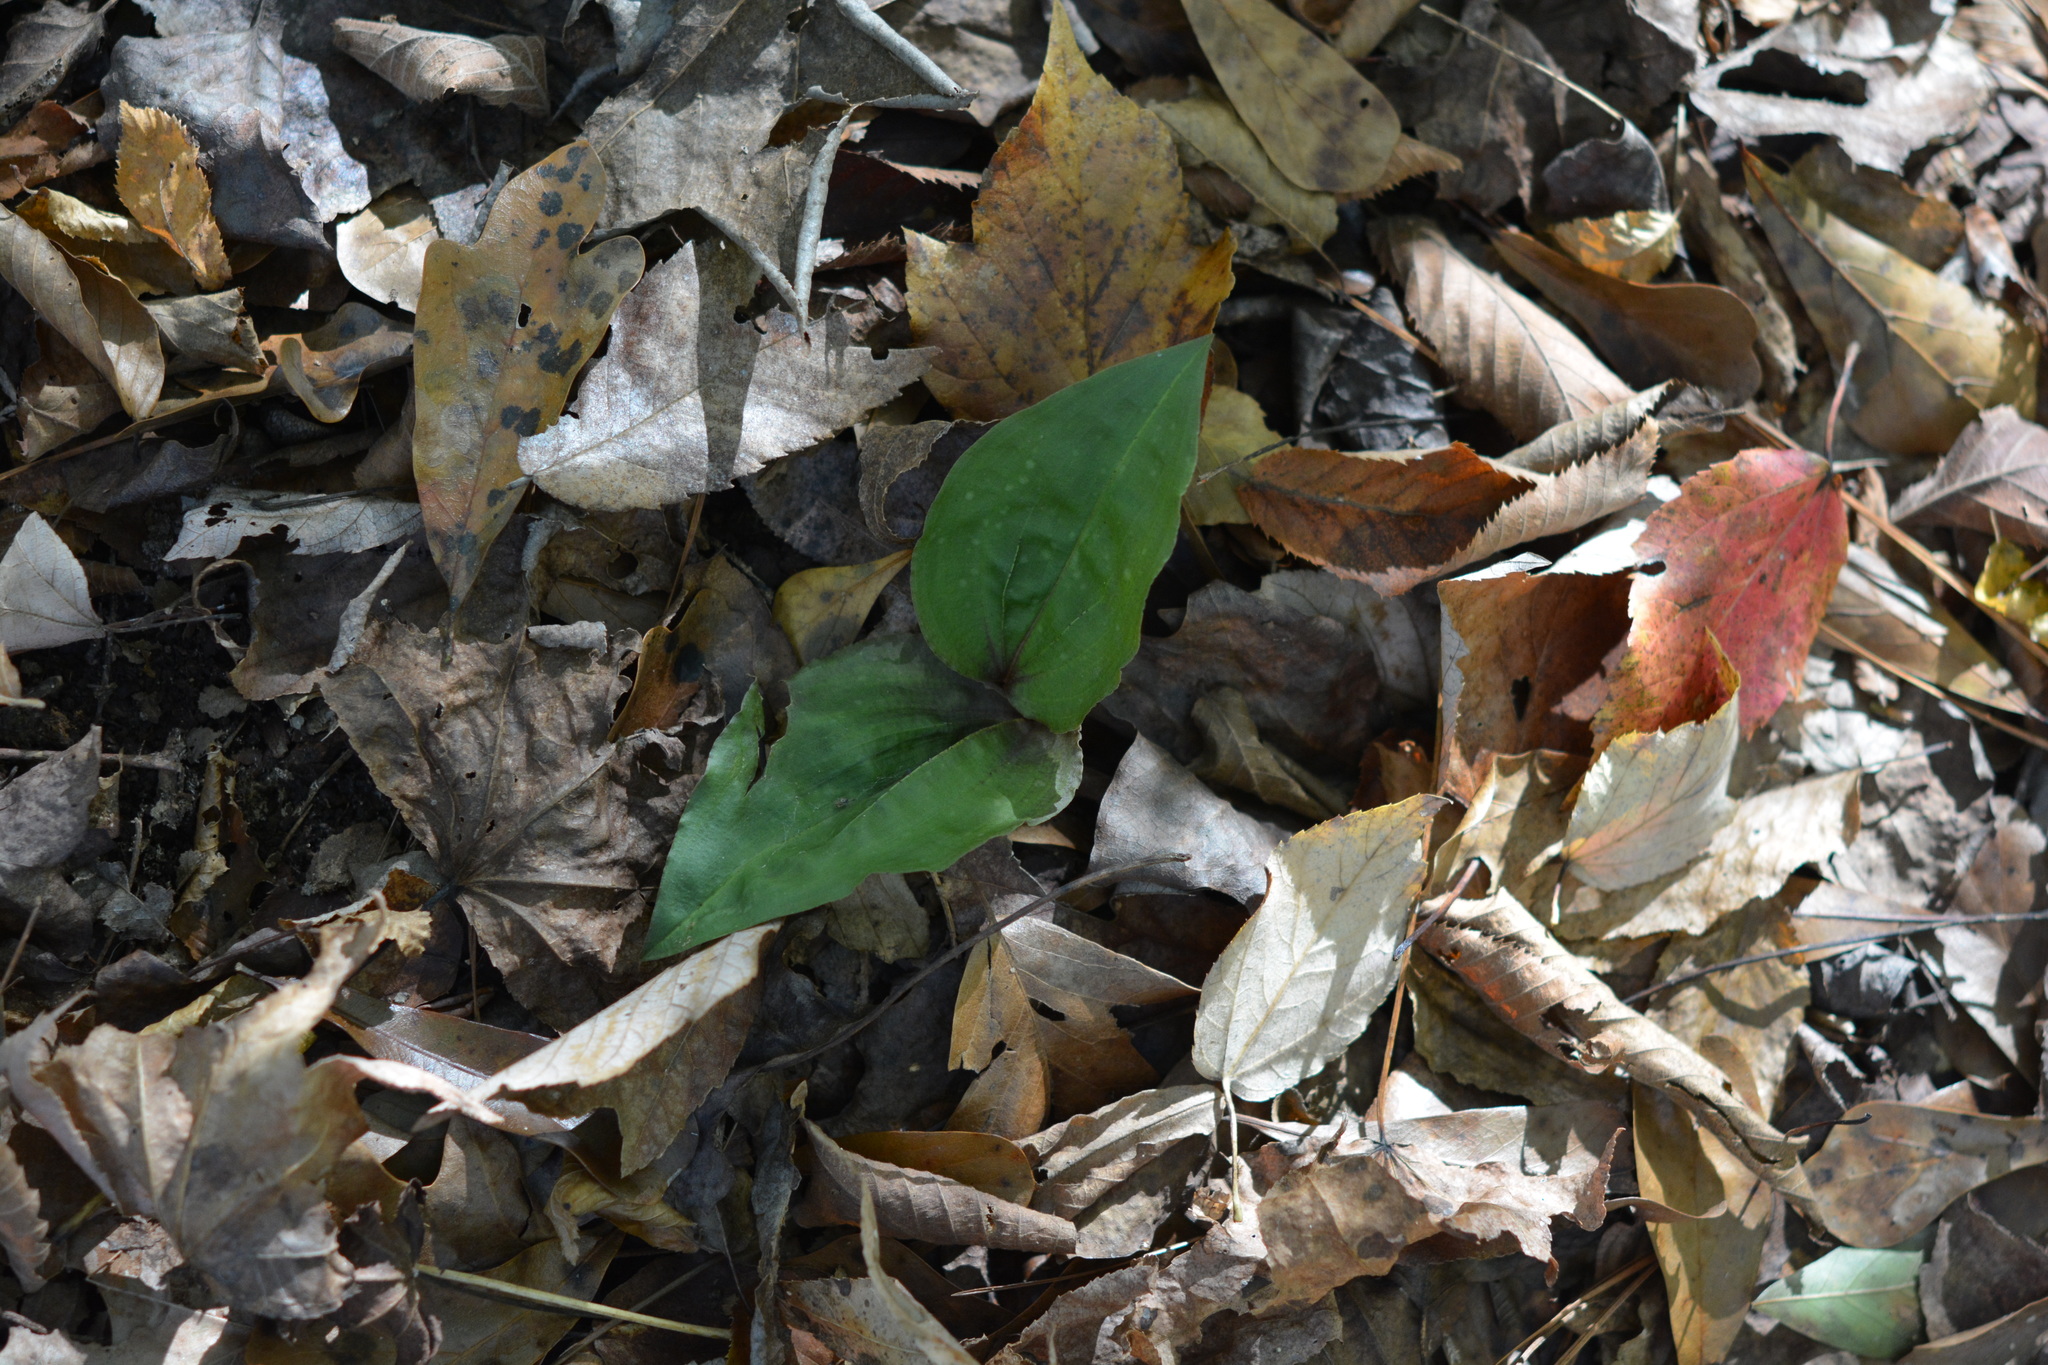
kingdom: Plantae
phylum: Tracheophyta
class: Liliopsida
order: Asparagales
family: Orchidaceae
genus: Tipularia
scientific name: Tipularia discolor
